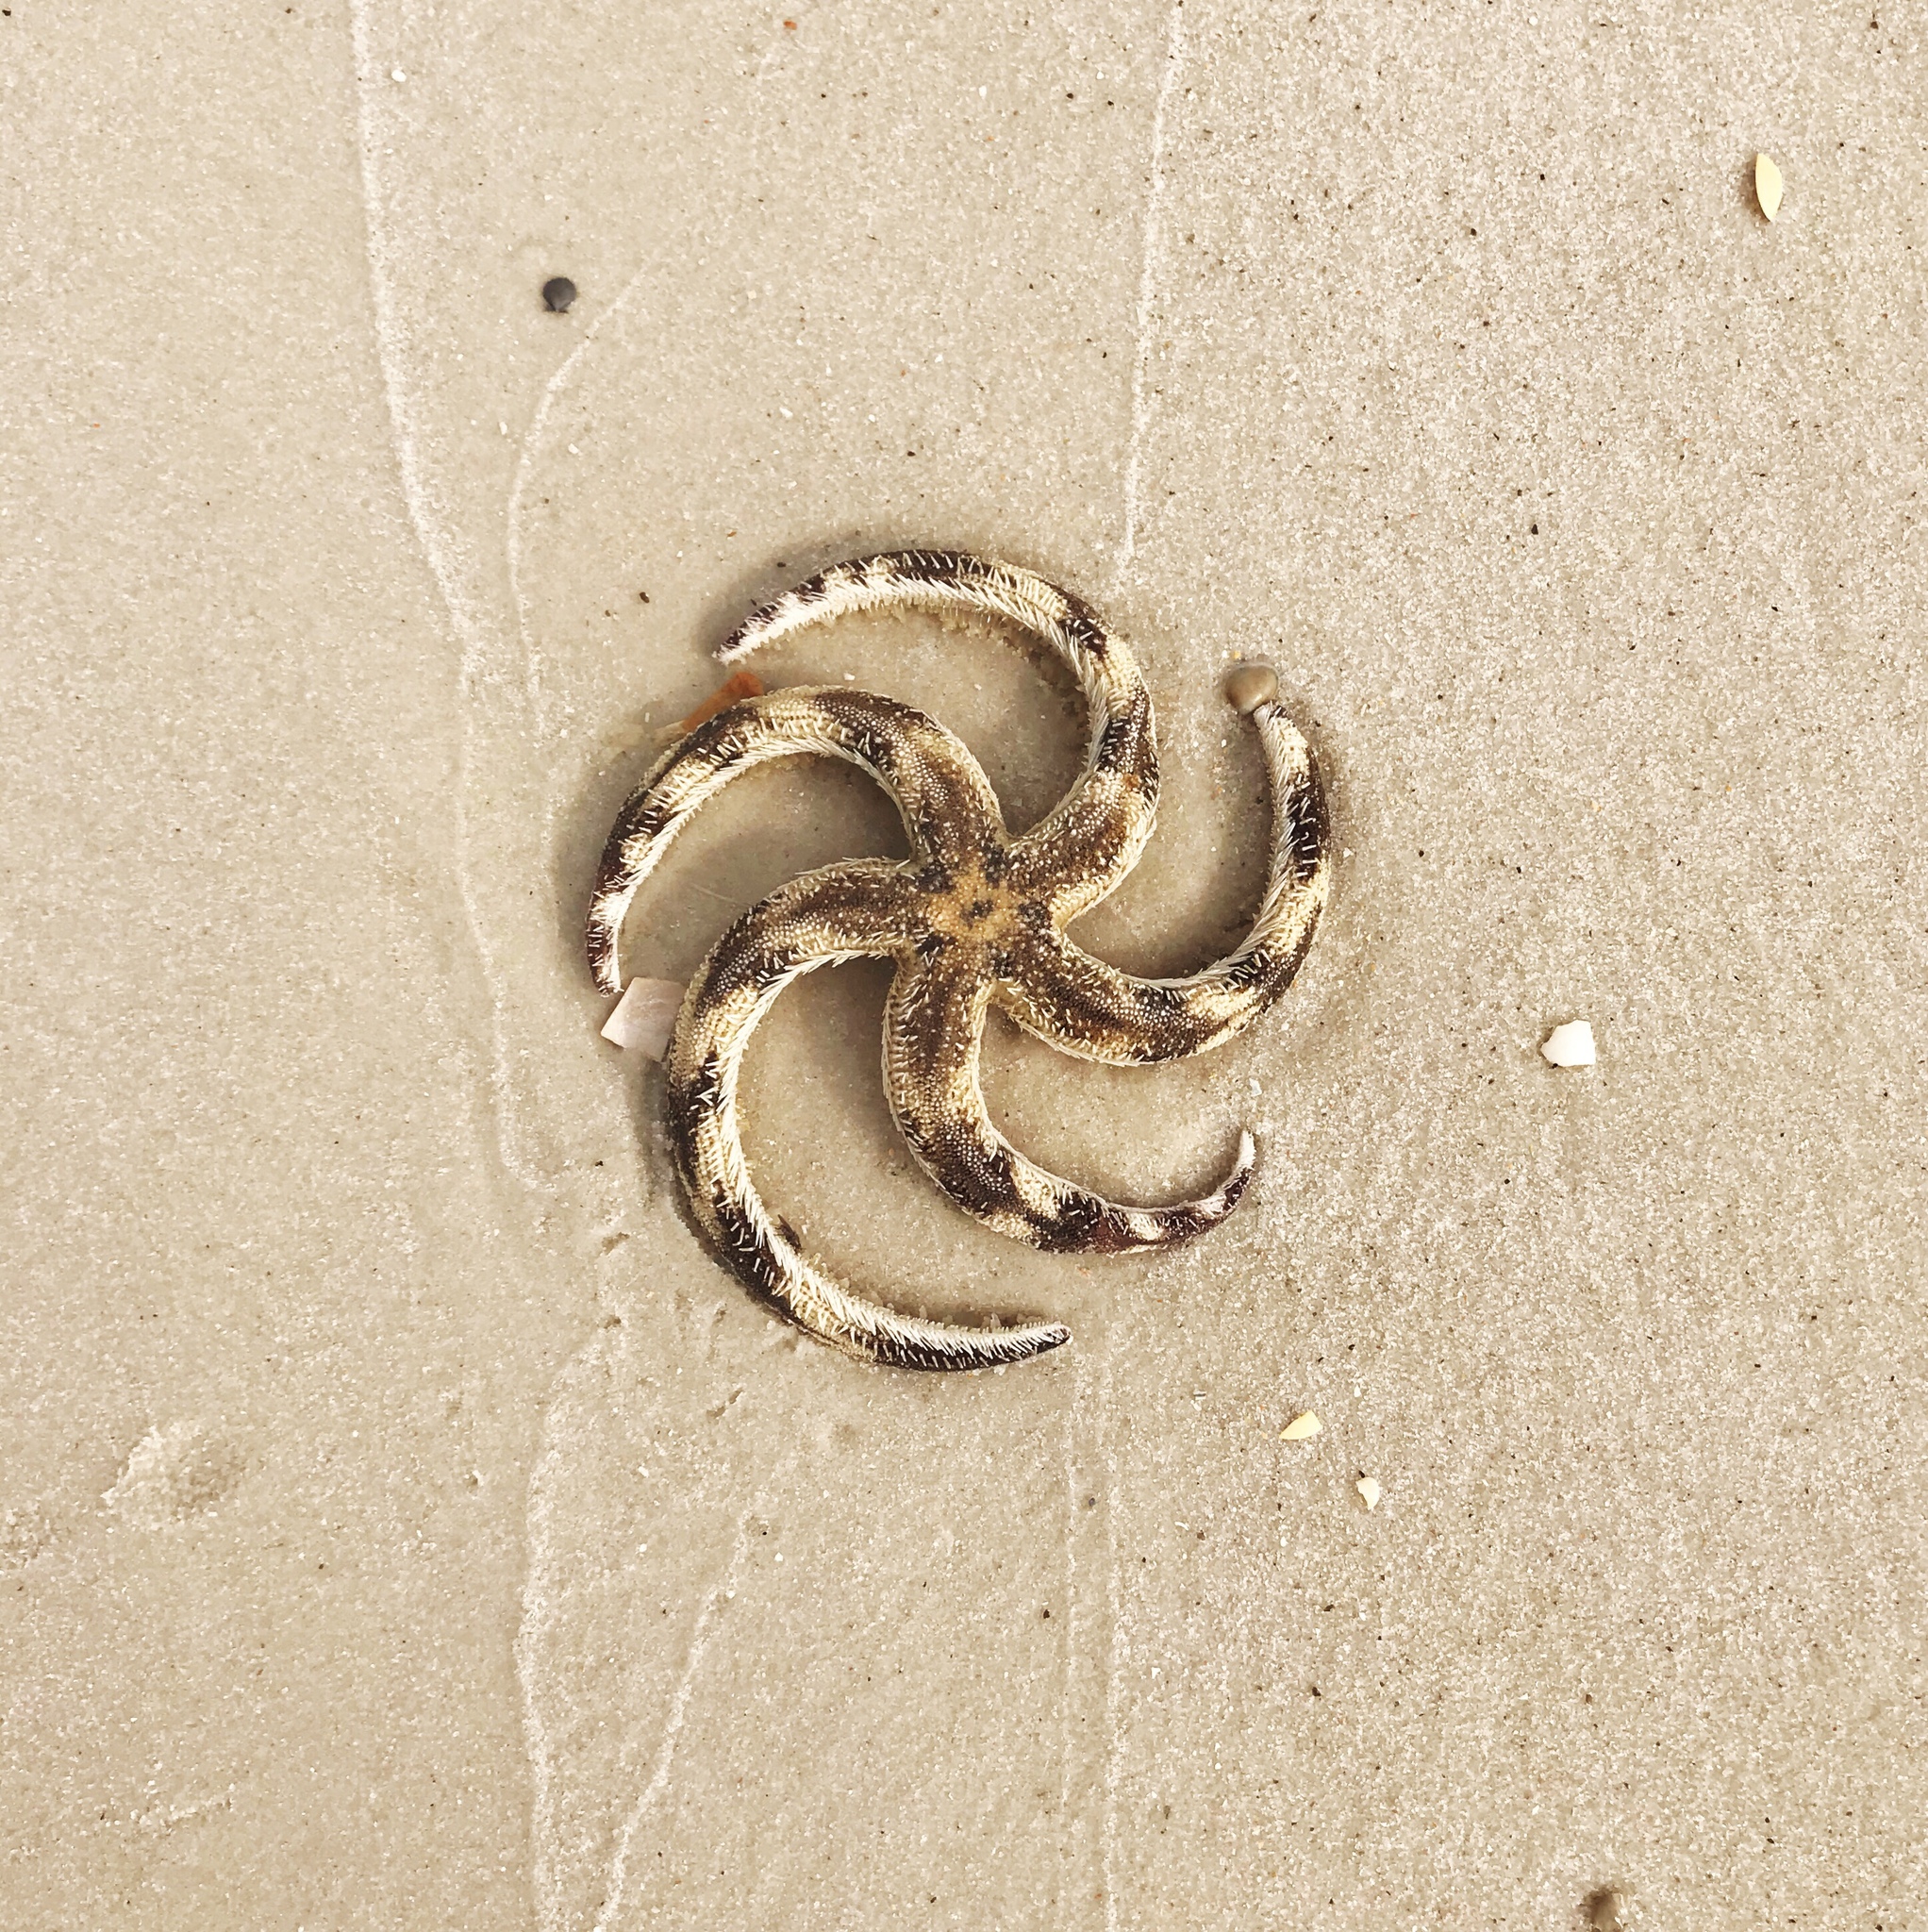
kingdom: Animalia
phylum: Echinodermata
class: Asteroidea
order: Paxillosida
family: Luidiidae
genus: Luidia
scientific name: Luidia alternata
